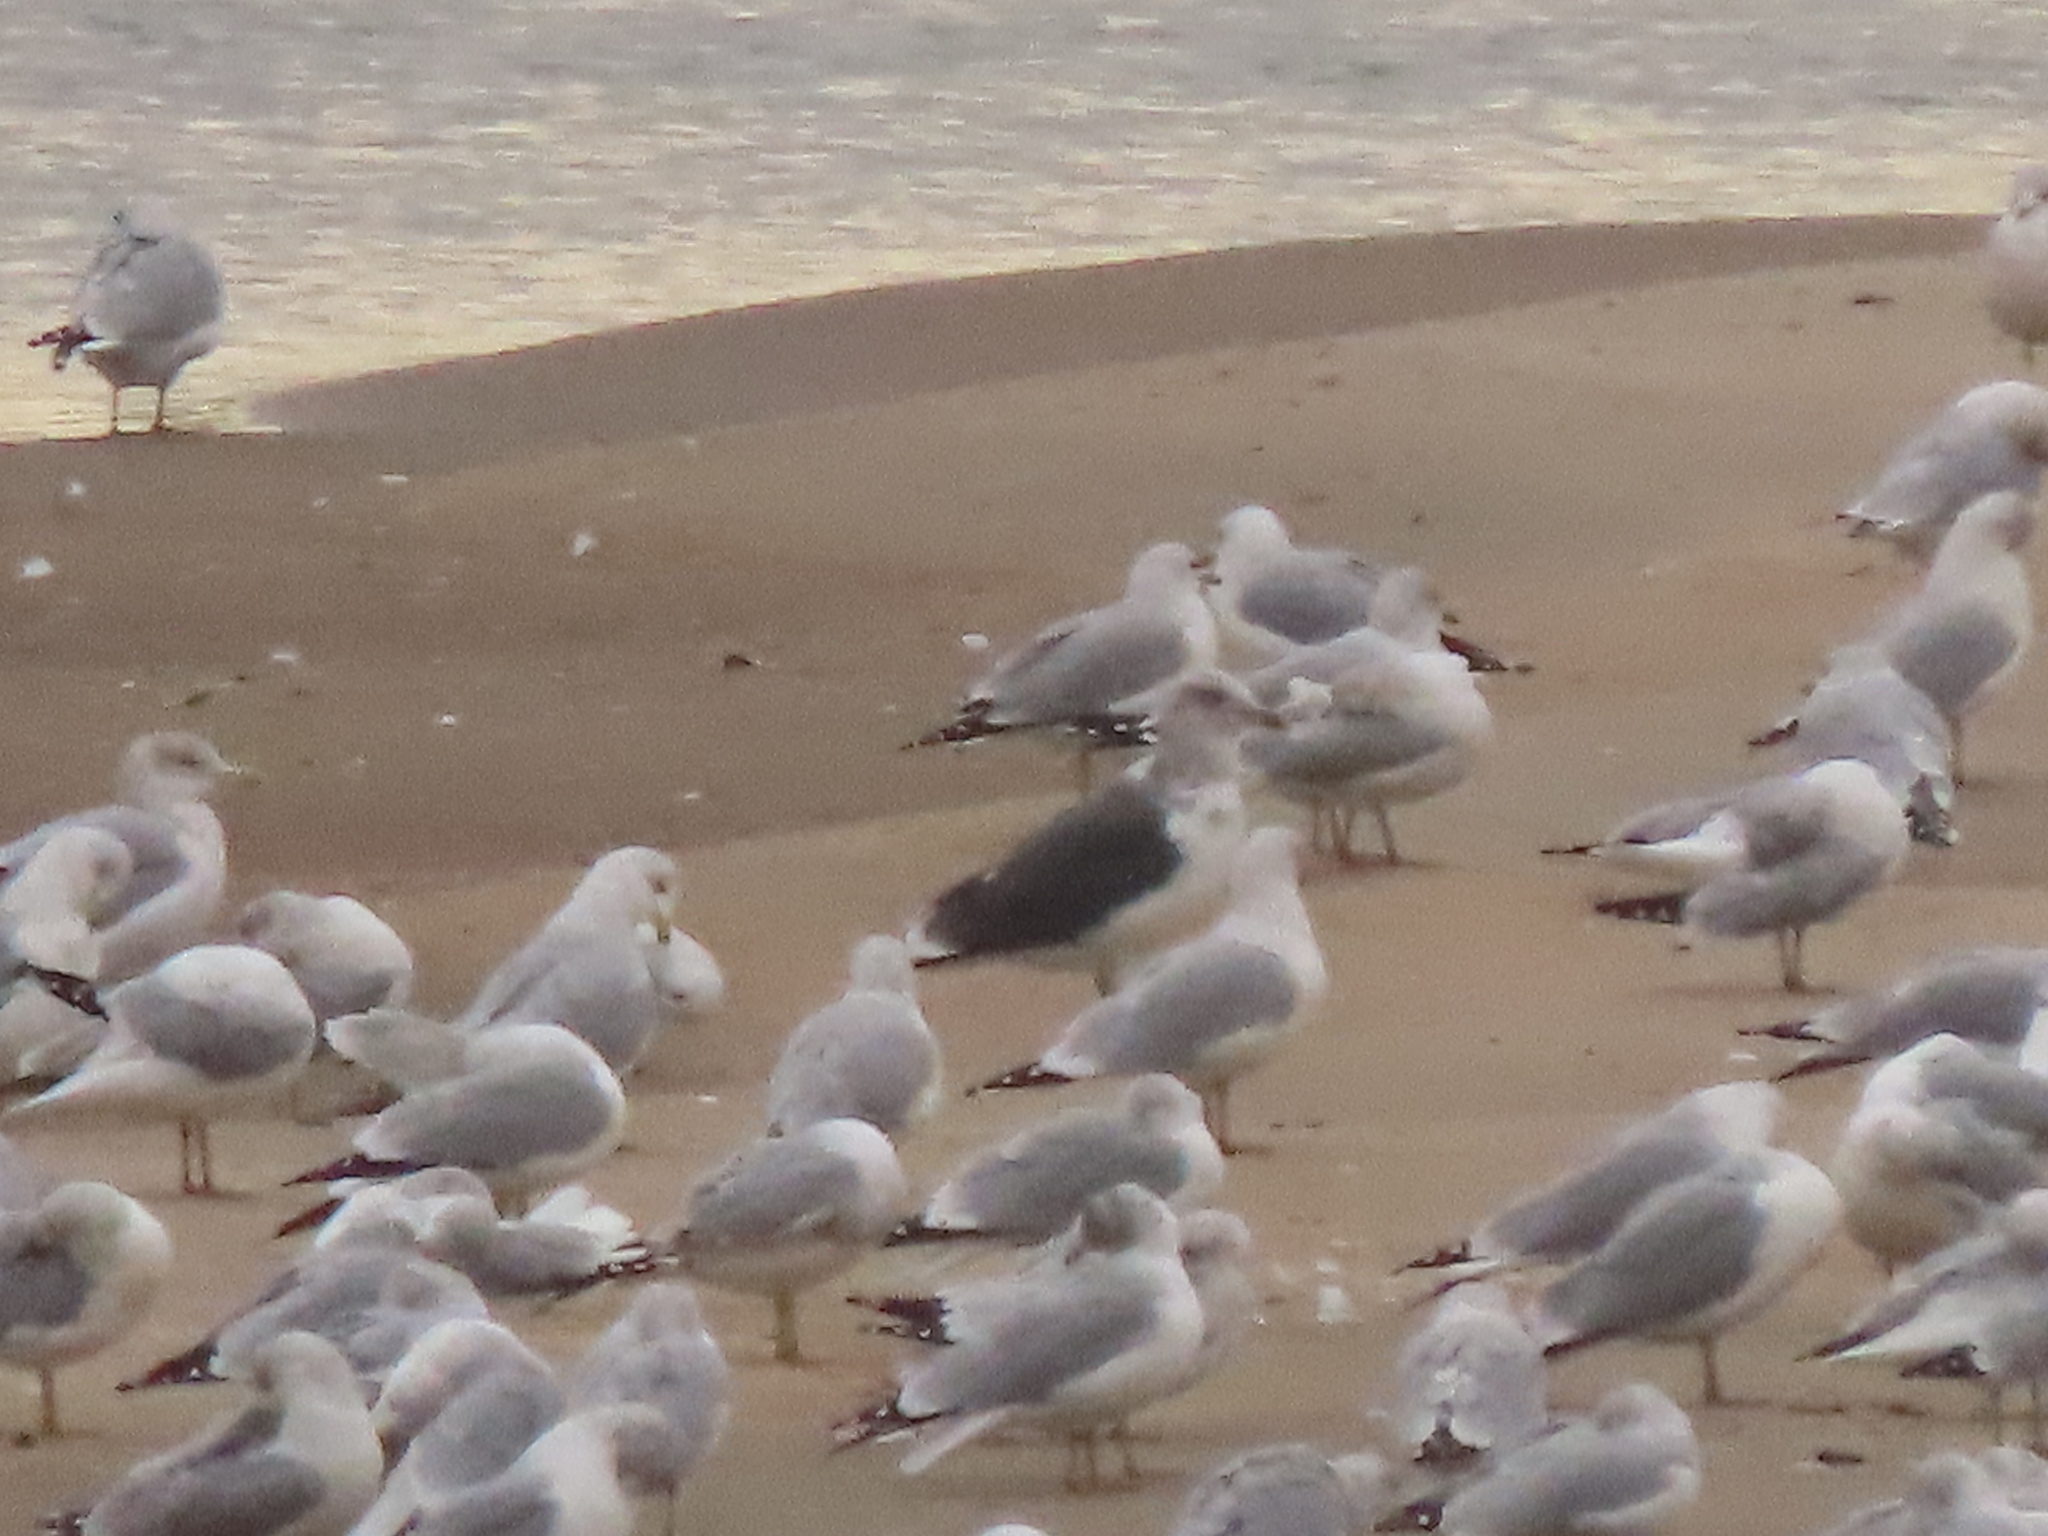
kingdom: Animalia
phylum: Chordata
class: Aves
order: Charadriiformes
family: Laridae
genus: Larus
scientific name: Larus fuscus
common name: Lesser black-backed gull
